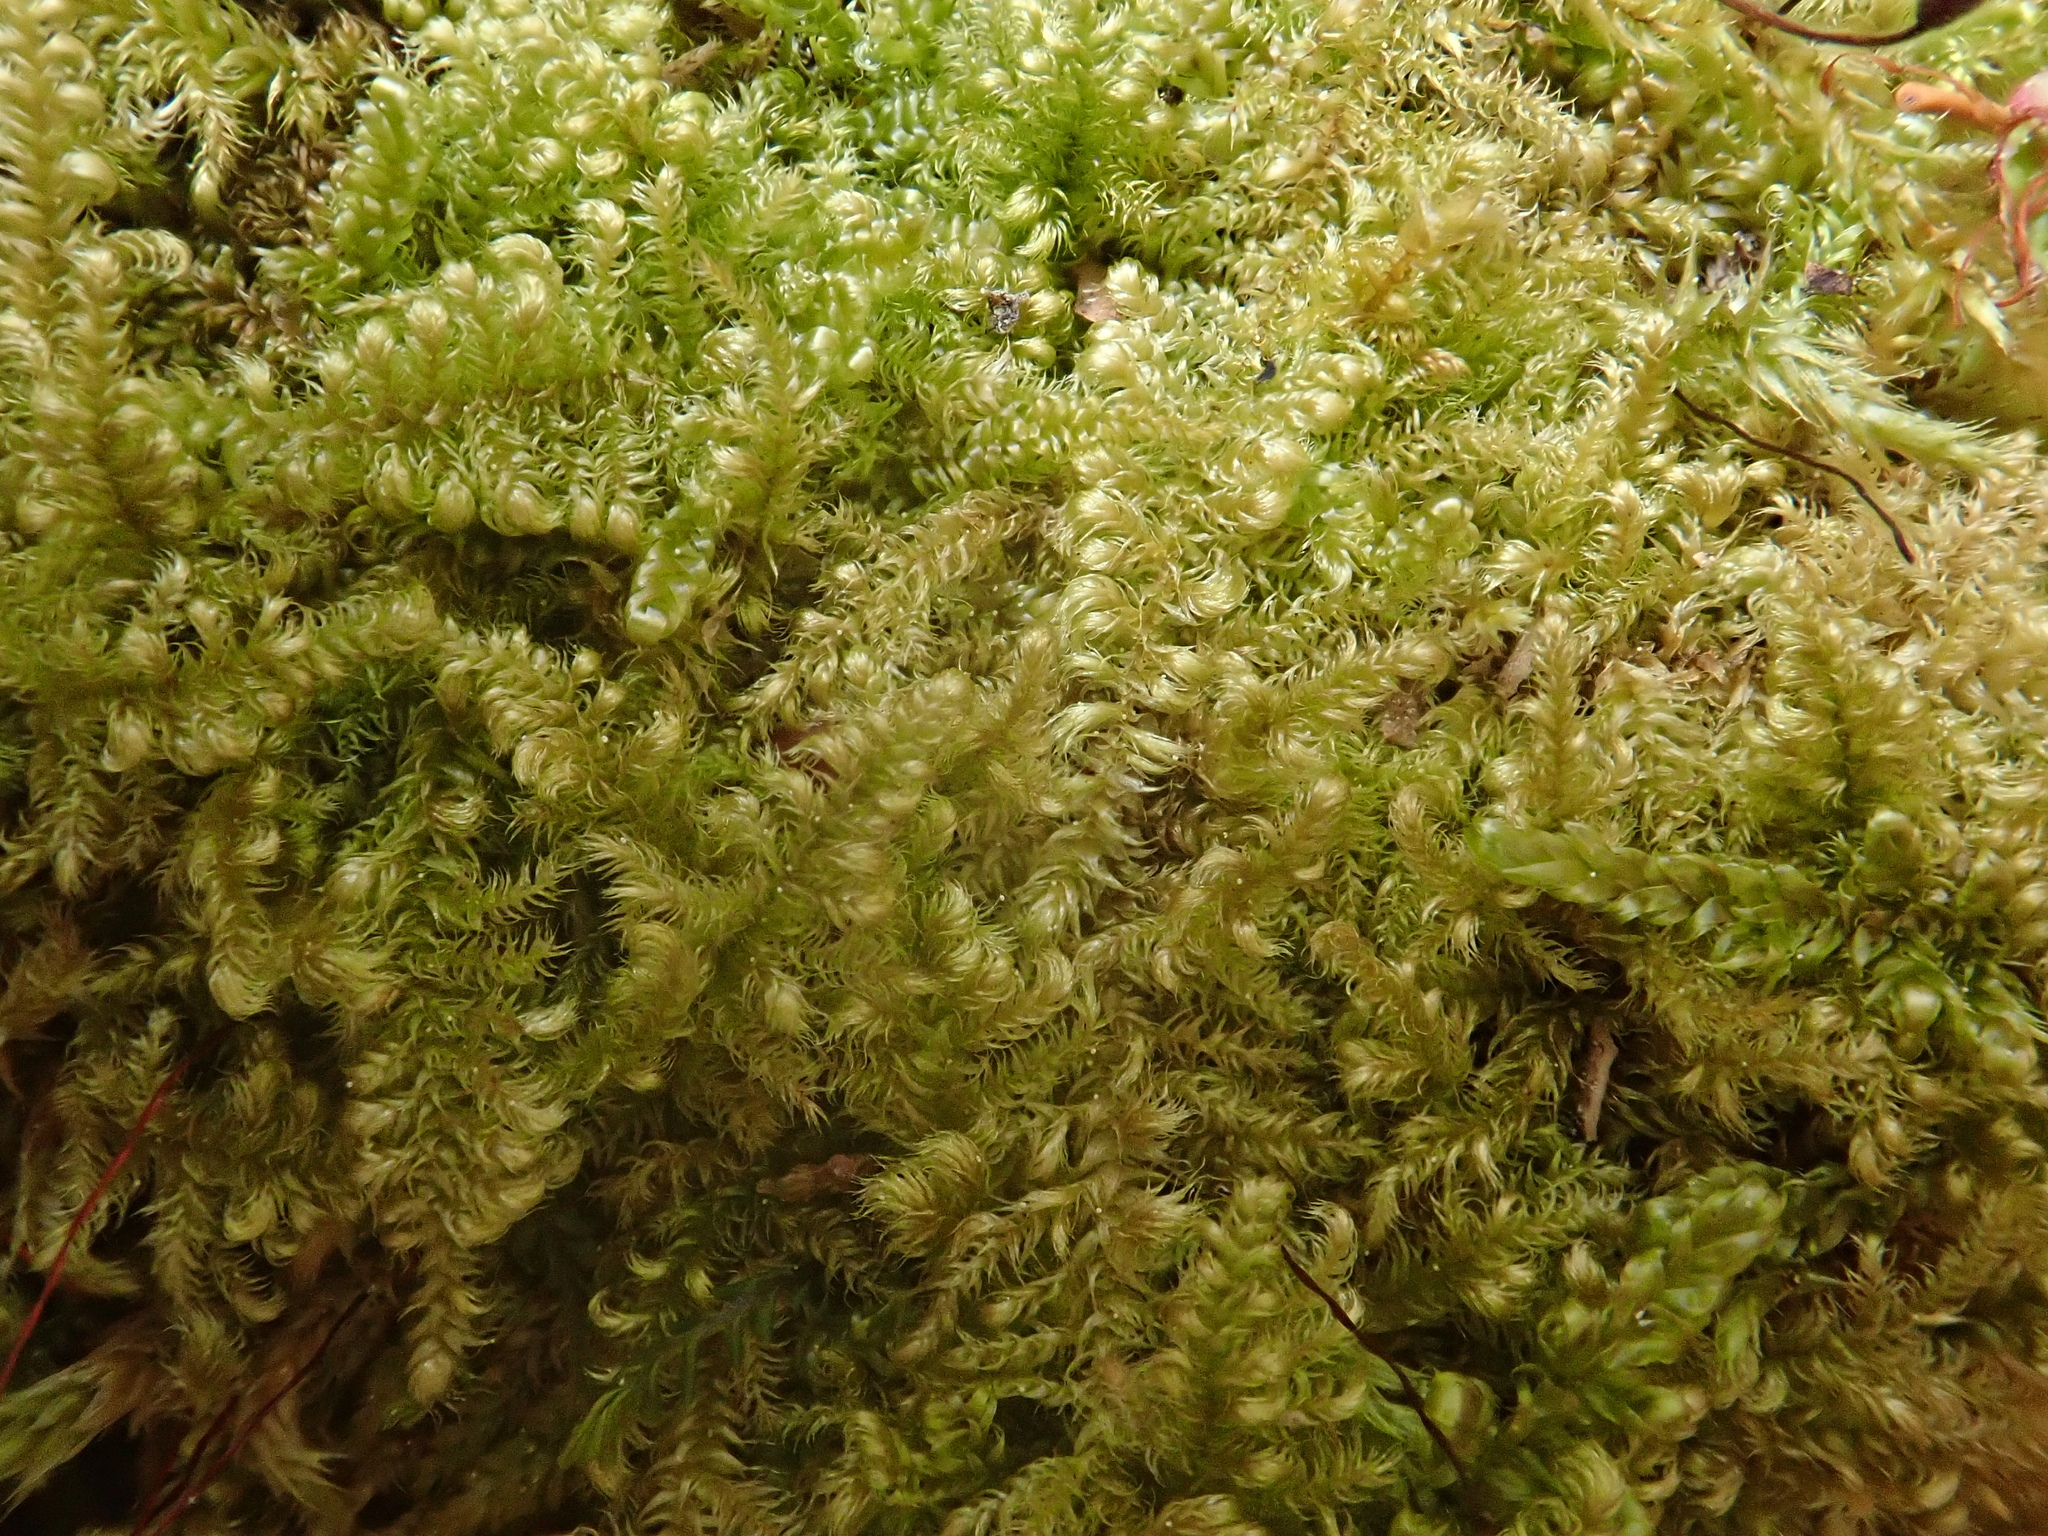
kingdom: Plantae
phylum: Bryophyta
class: Bryopsida
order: Hypnales
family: Myuriaceae
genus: Ctenidium
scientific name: Ctenidium molluscum
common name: Chalk comb-moss
